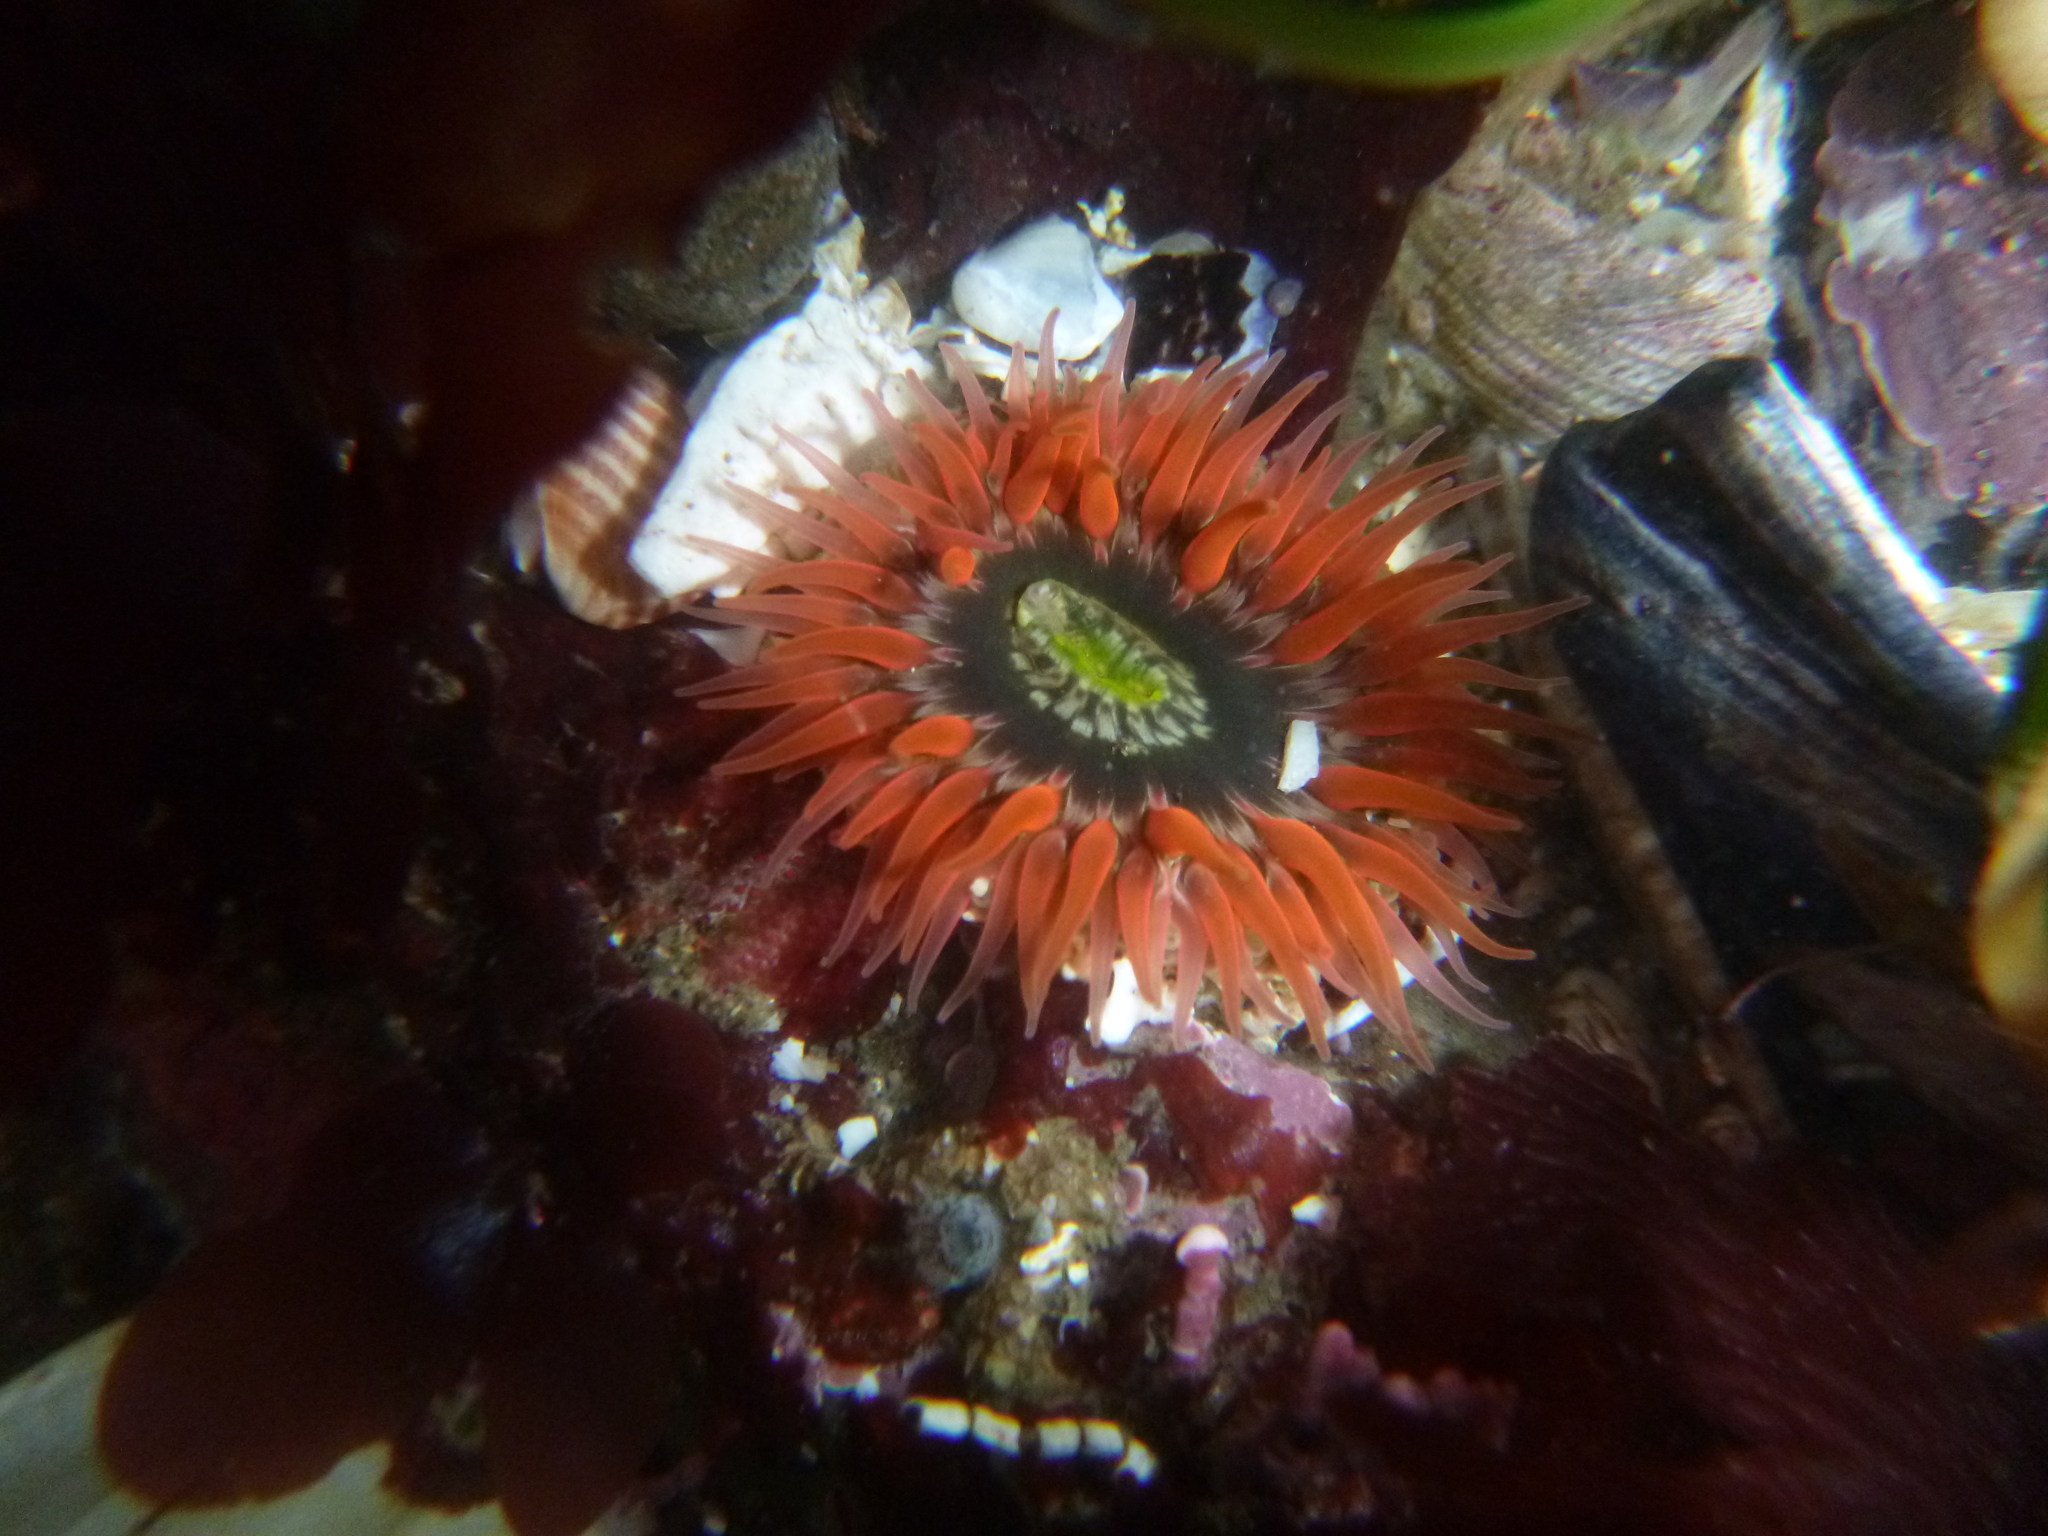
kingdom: Animalia
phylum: Cnidaria
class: Anthozoa
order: Actiniaria
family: Actiniidae
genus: Anthopleura
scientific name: Anthopleura artemisia
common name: Buried sea anemone
